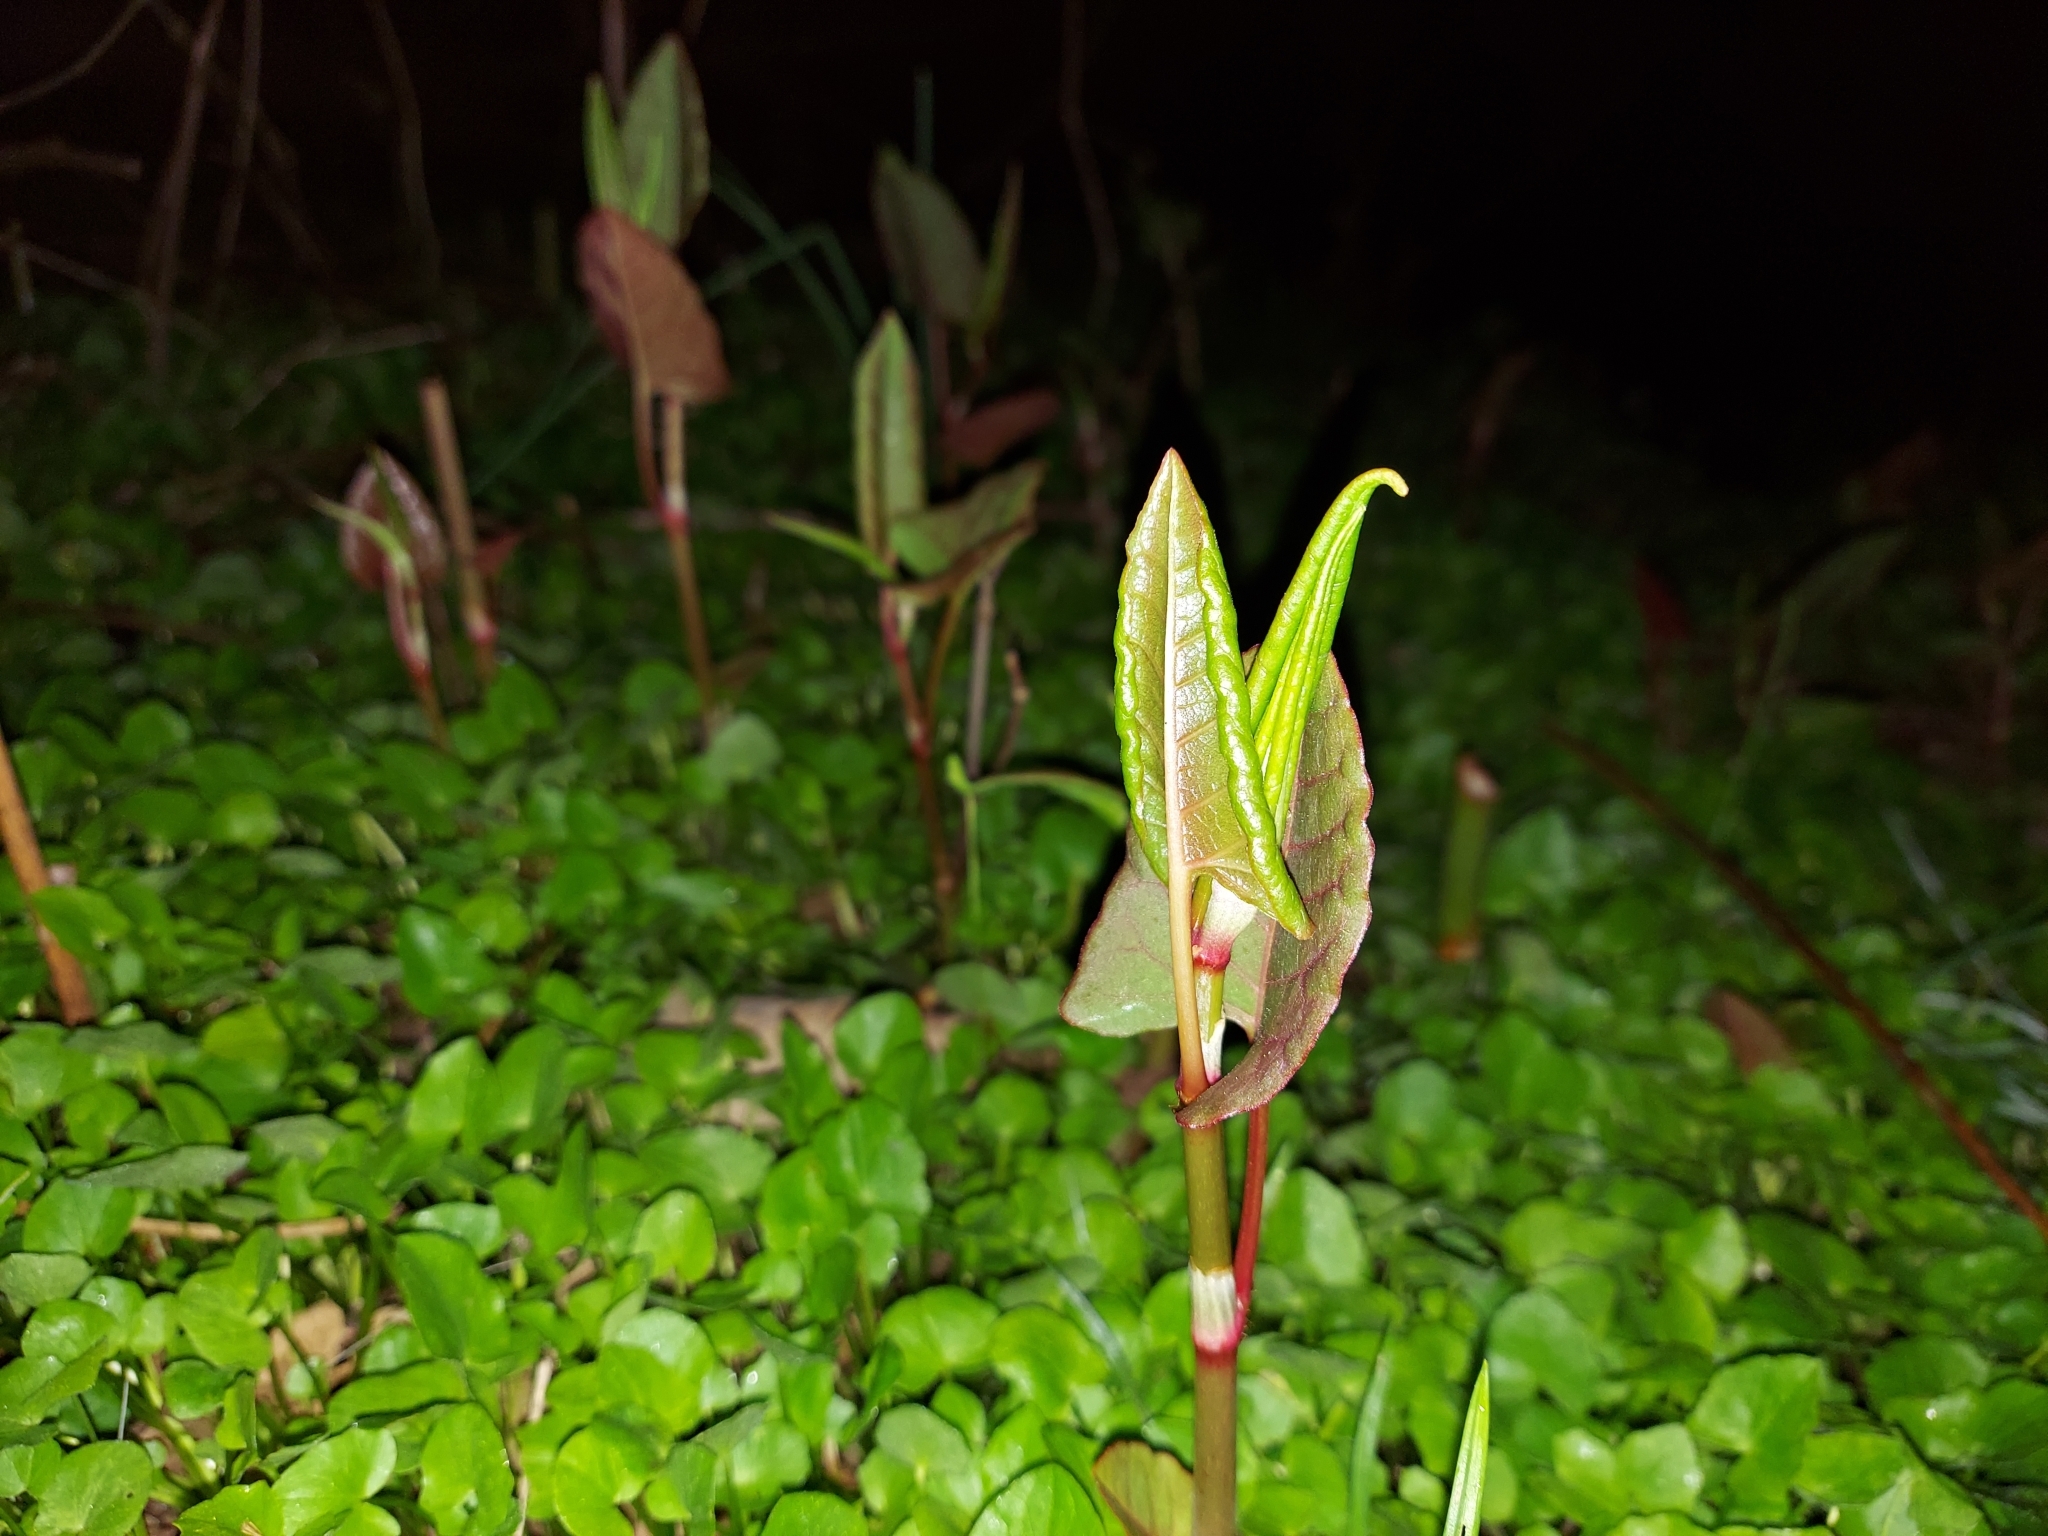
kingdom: Plantae
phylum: Tracheophyta
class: Magnoliopsida
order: Caryophyllales
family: Polygonaceae
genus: Reynoutria
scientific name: Reynoutria japonica
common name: Japanese knotweed
